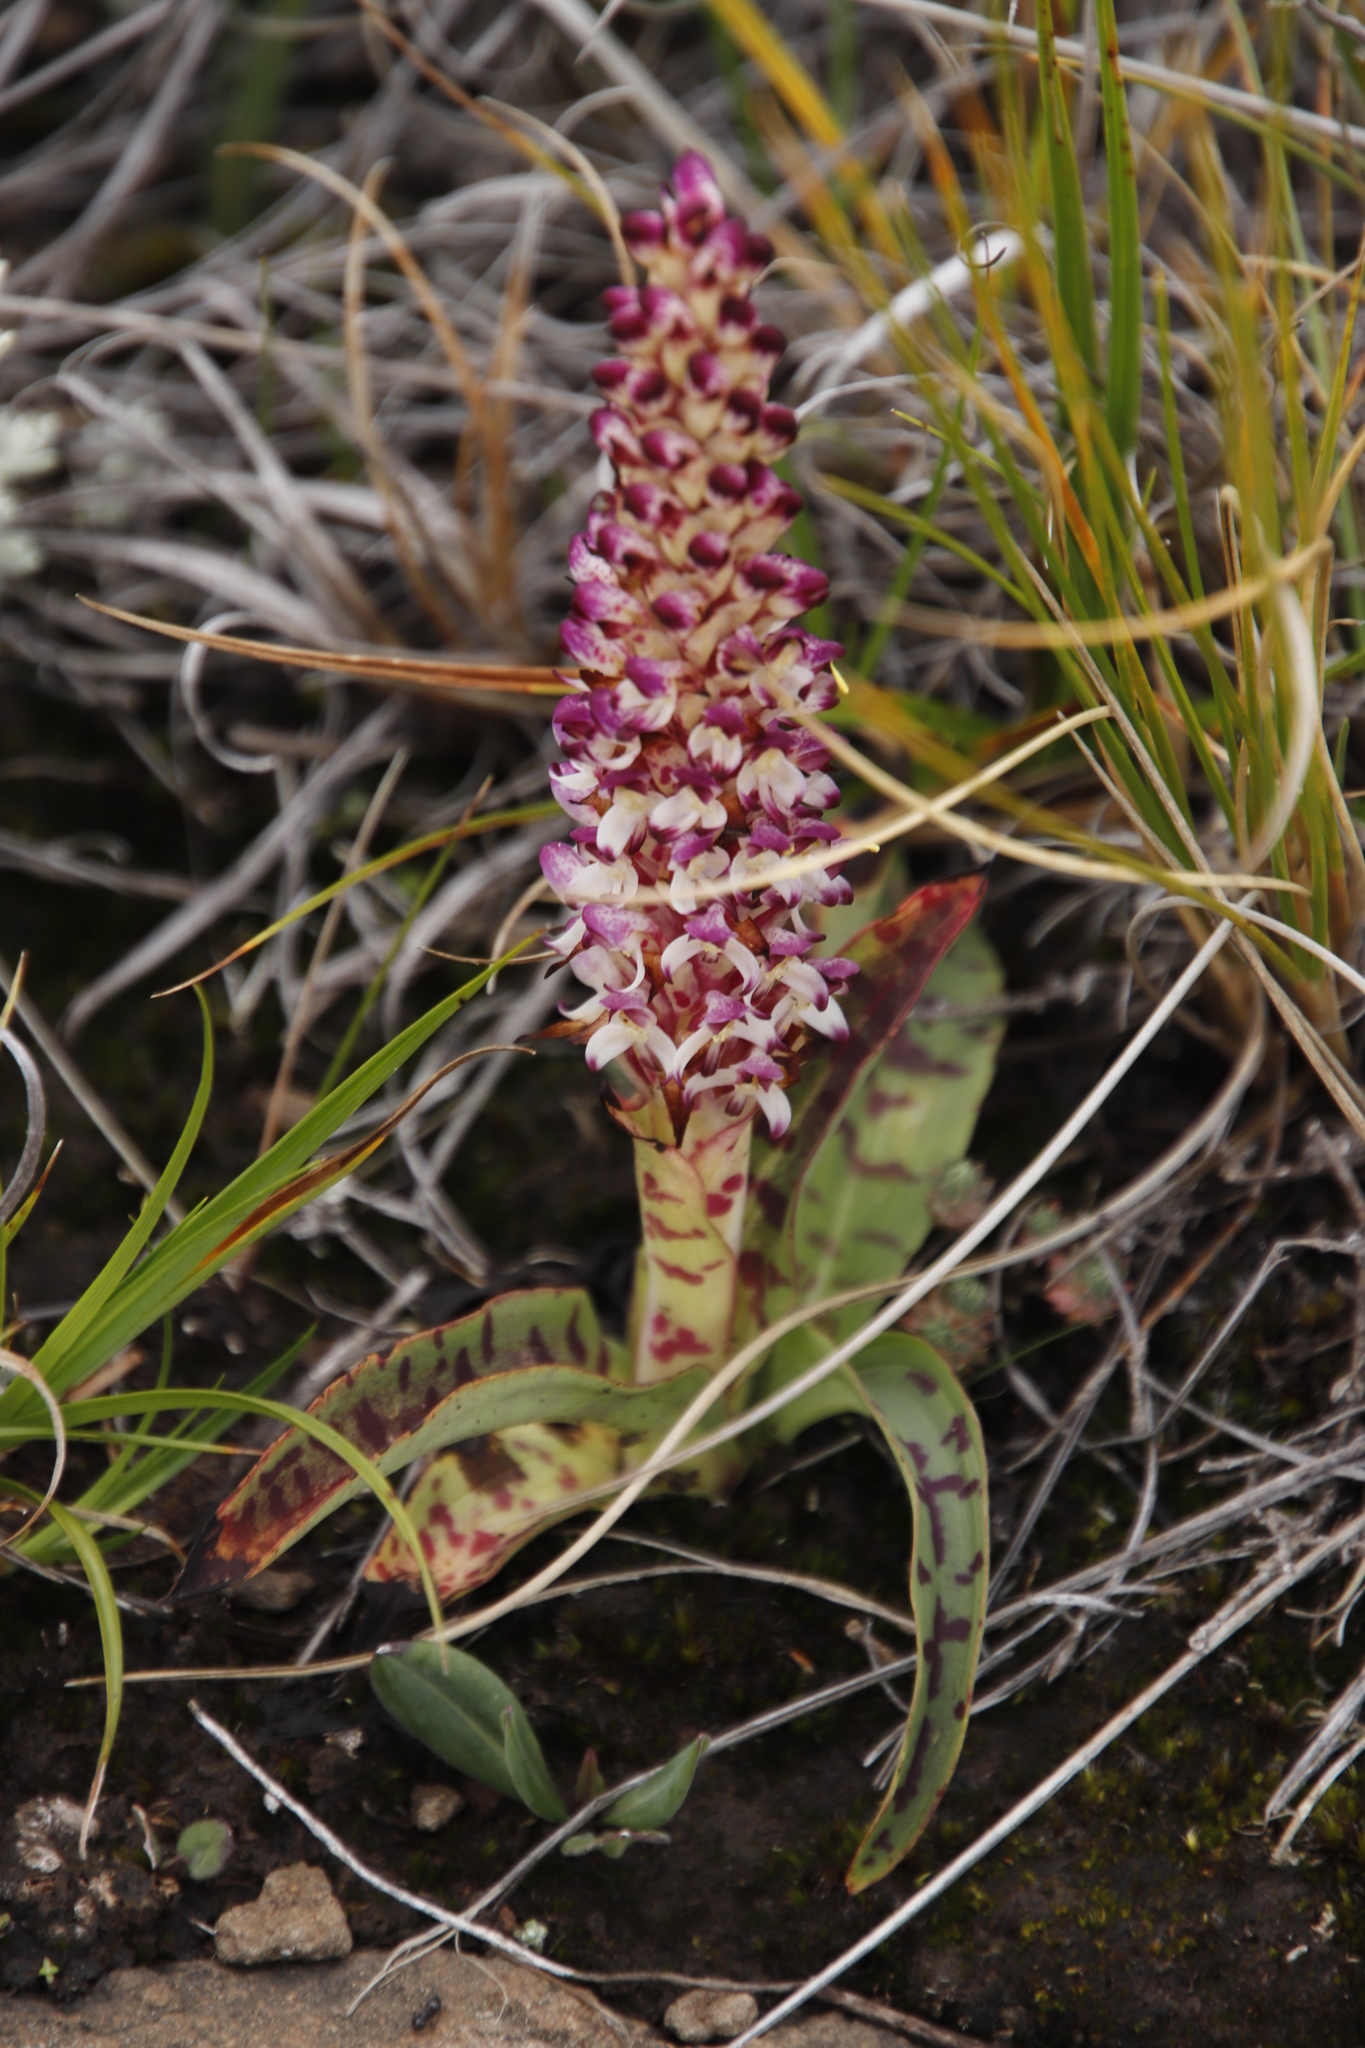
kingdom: Plantae
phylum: Tracheophyta
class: Liliopsida
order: Asparagales
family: Orchidaceae
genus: Disa
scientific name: Disa fragrans
